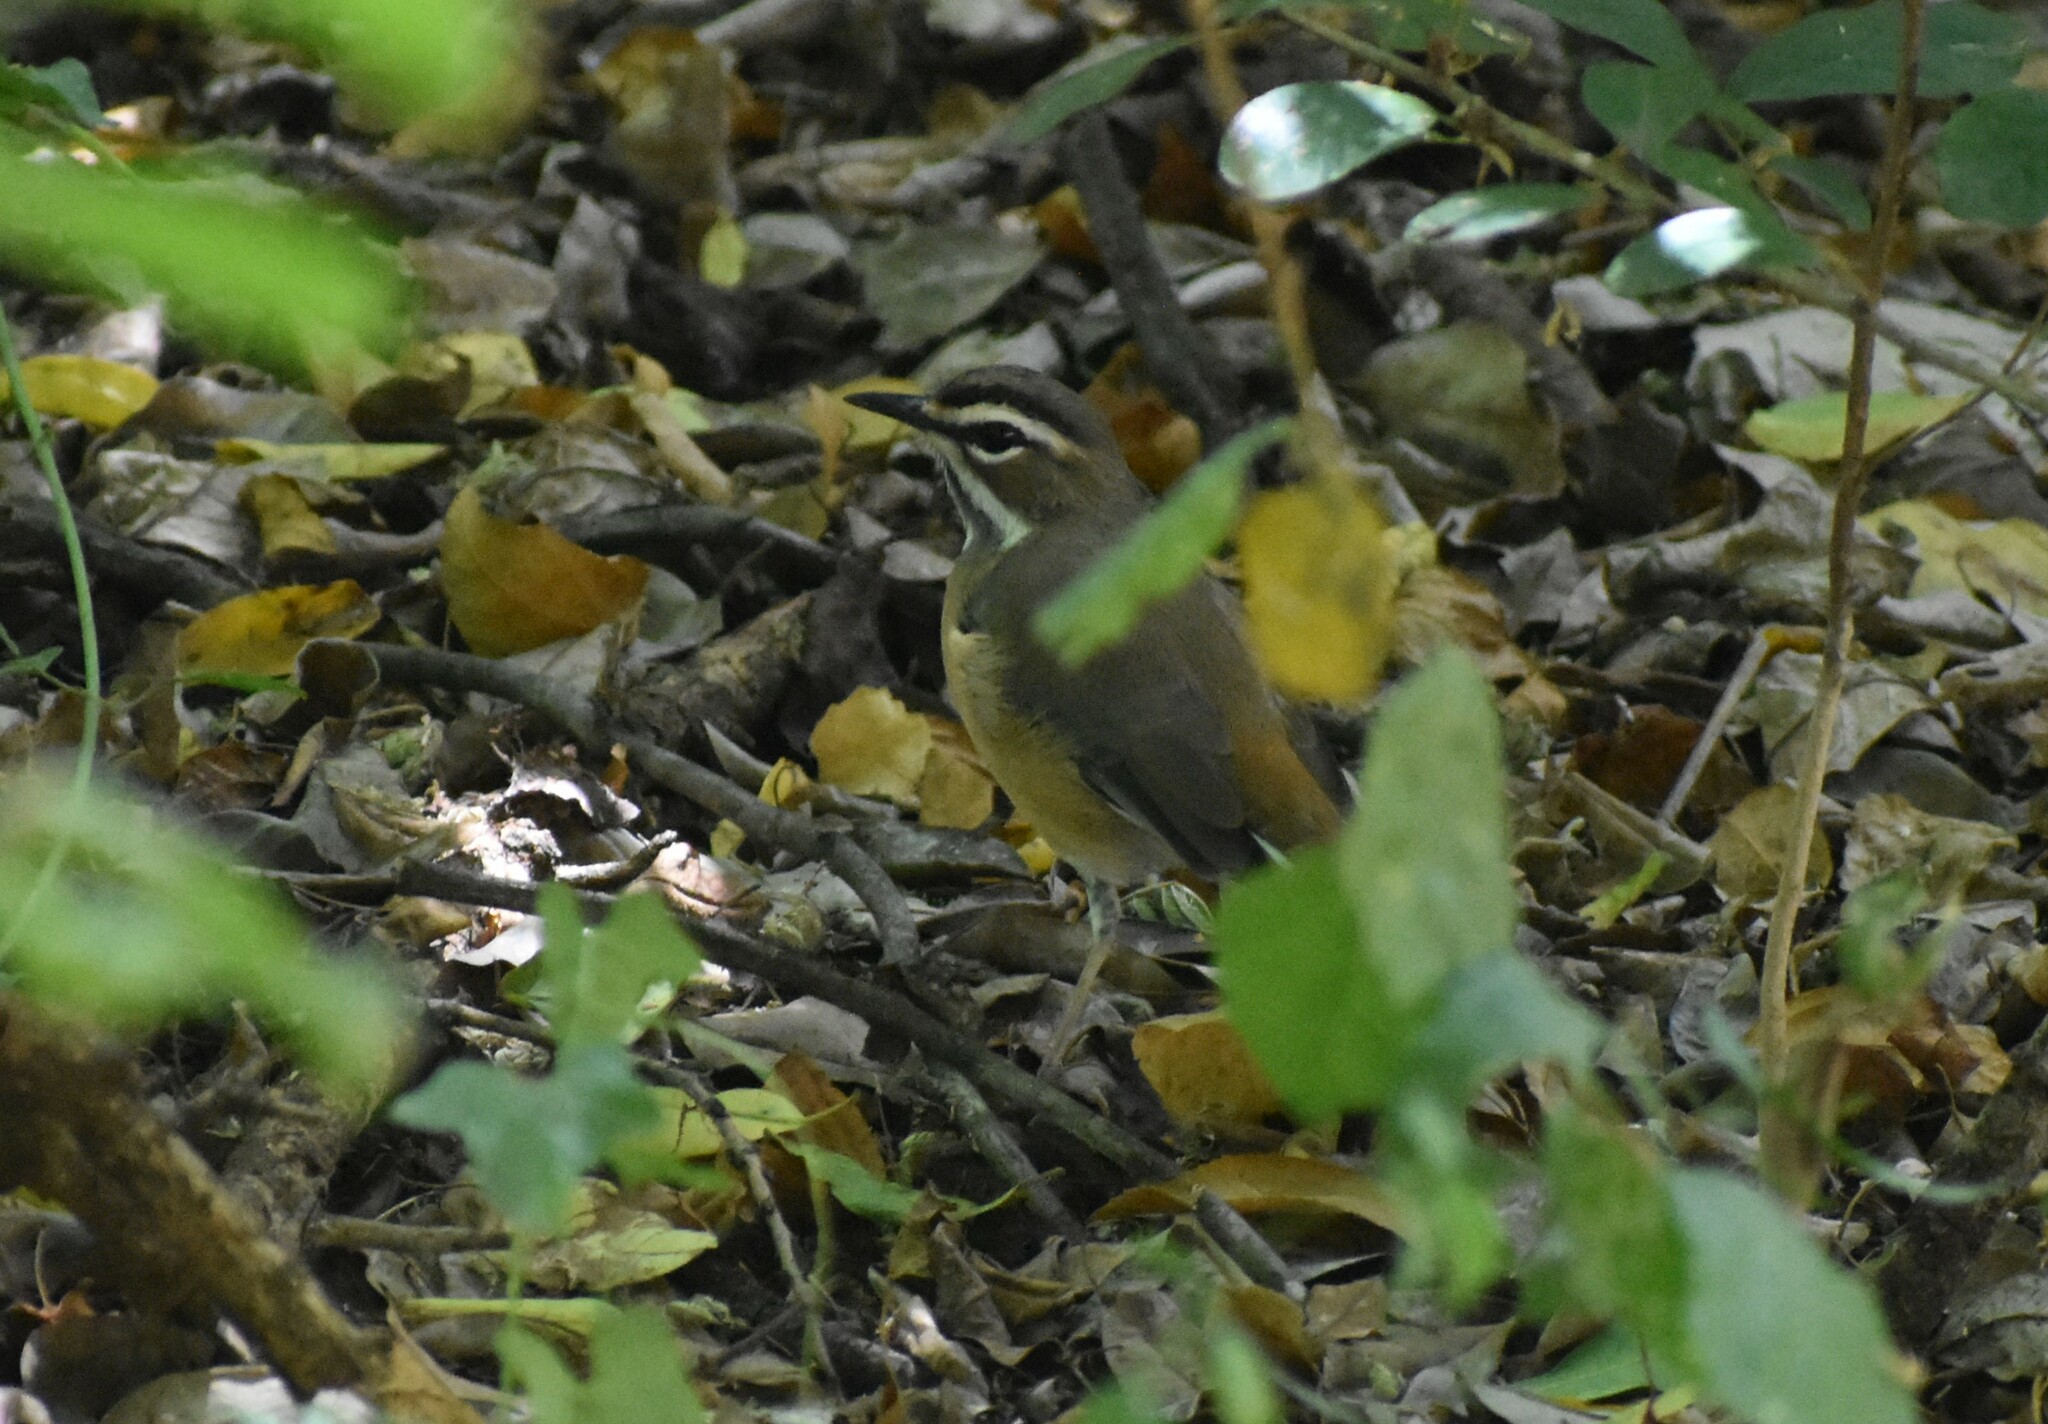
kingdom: Animalia
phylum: Chordata
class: Aves
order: Passeriformes
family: Muscicapidae
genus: Erythropygia
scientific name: Erythropygia quadrivirgata
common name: Bearded scrub robin
